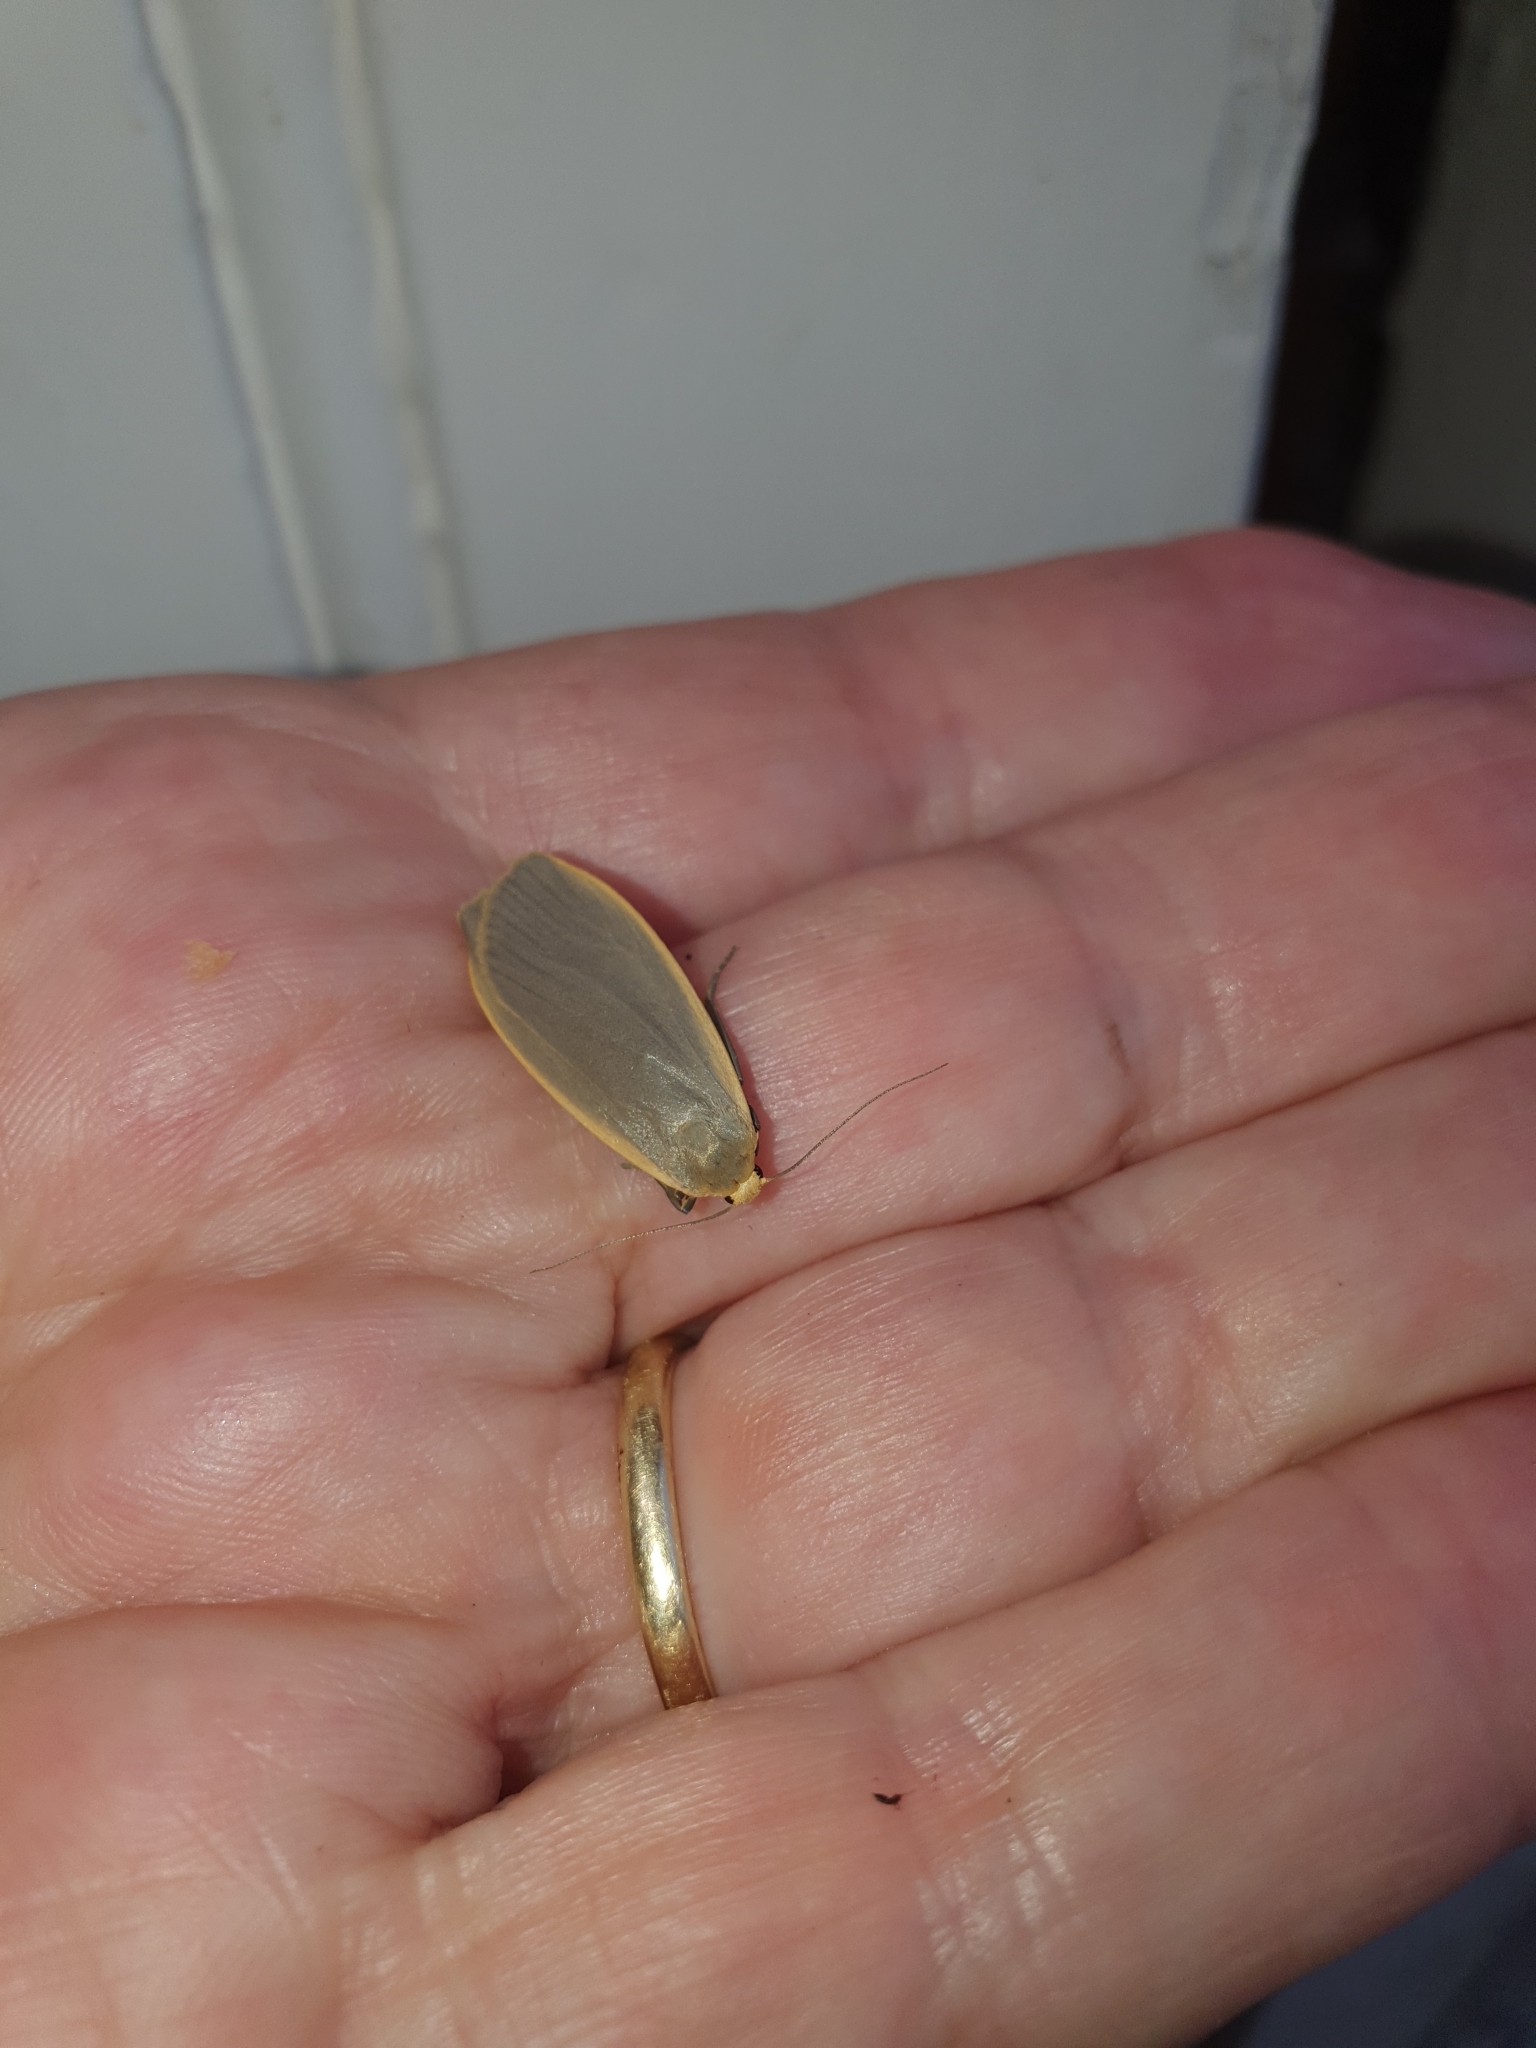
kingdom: Animalia
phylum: Arthropoda
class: Insecta
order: Lepidoptera
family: Erebidae
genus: Nyea
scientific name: Nyea lurideola
